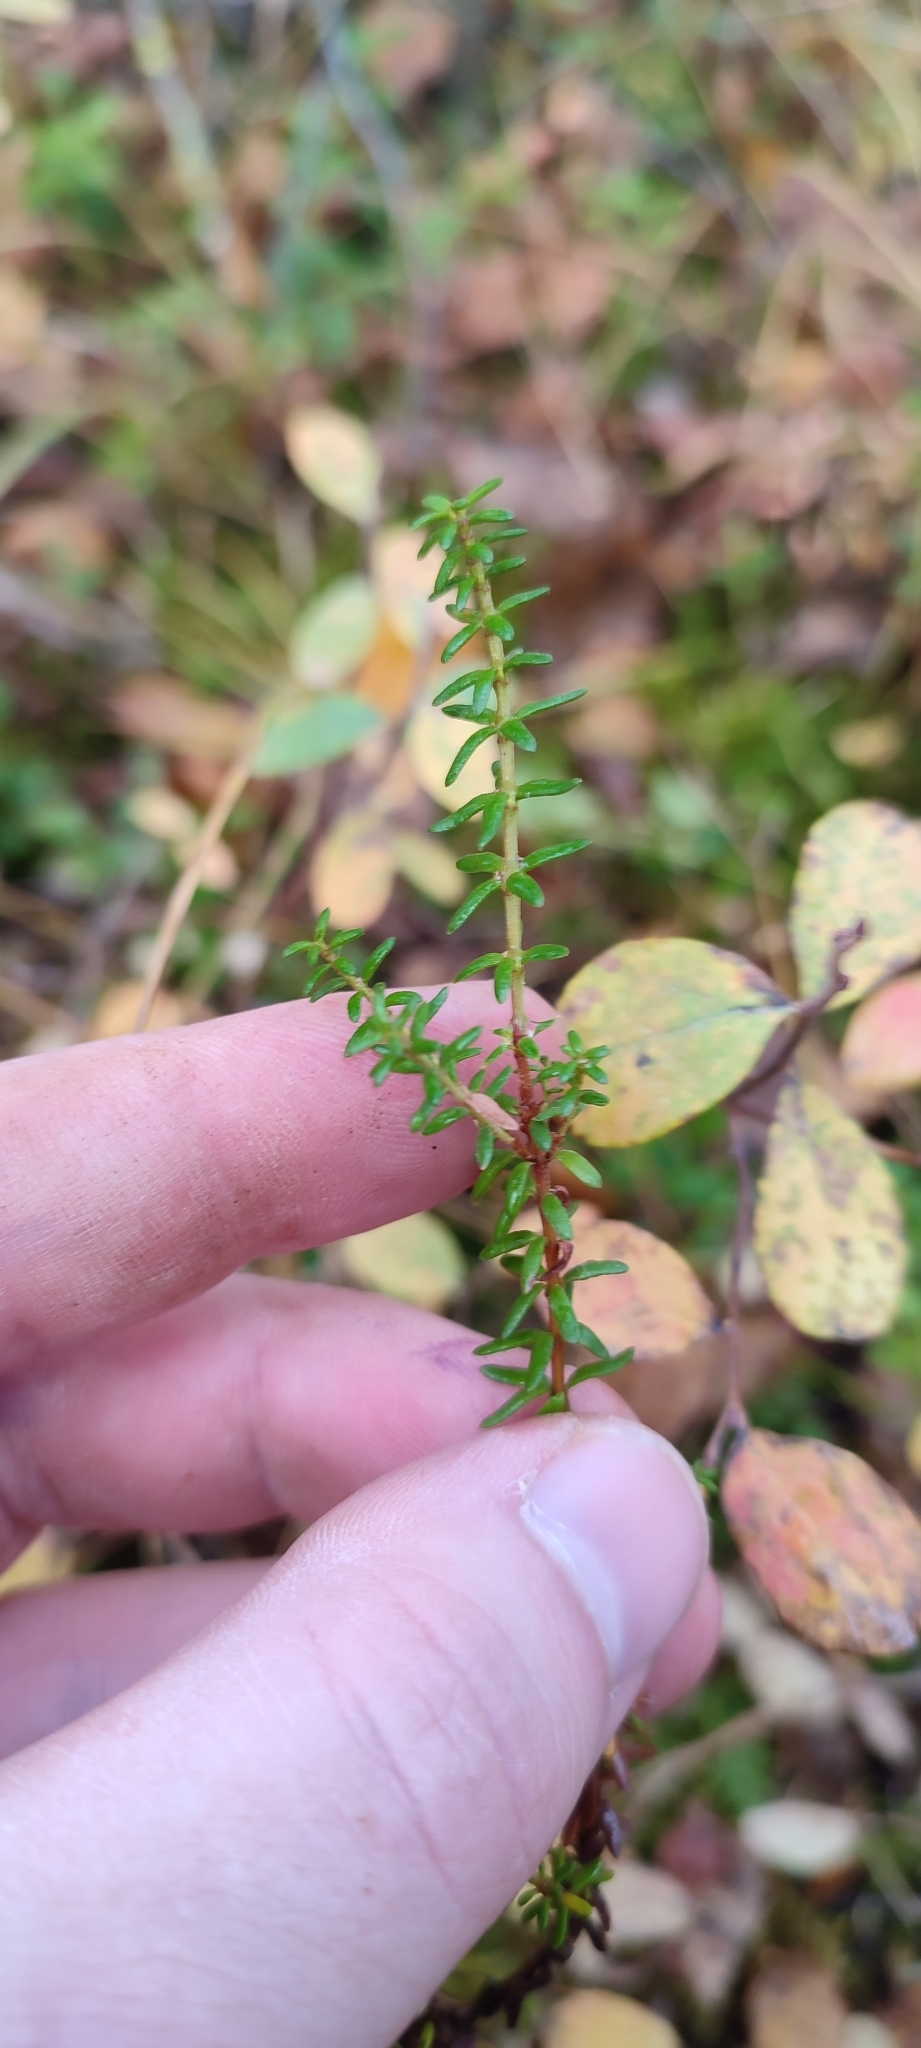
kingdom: Plantae
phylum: Tracheophyta
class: Magnoliopsida
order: Ericales
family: Ericaceae
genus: Empetrum
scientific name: Empetrum nigrum
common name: Black crowberry
